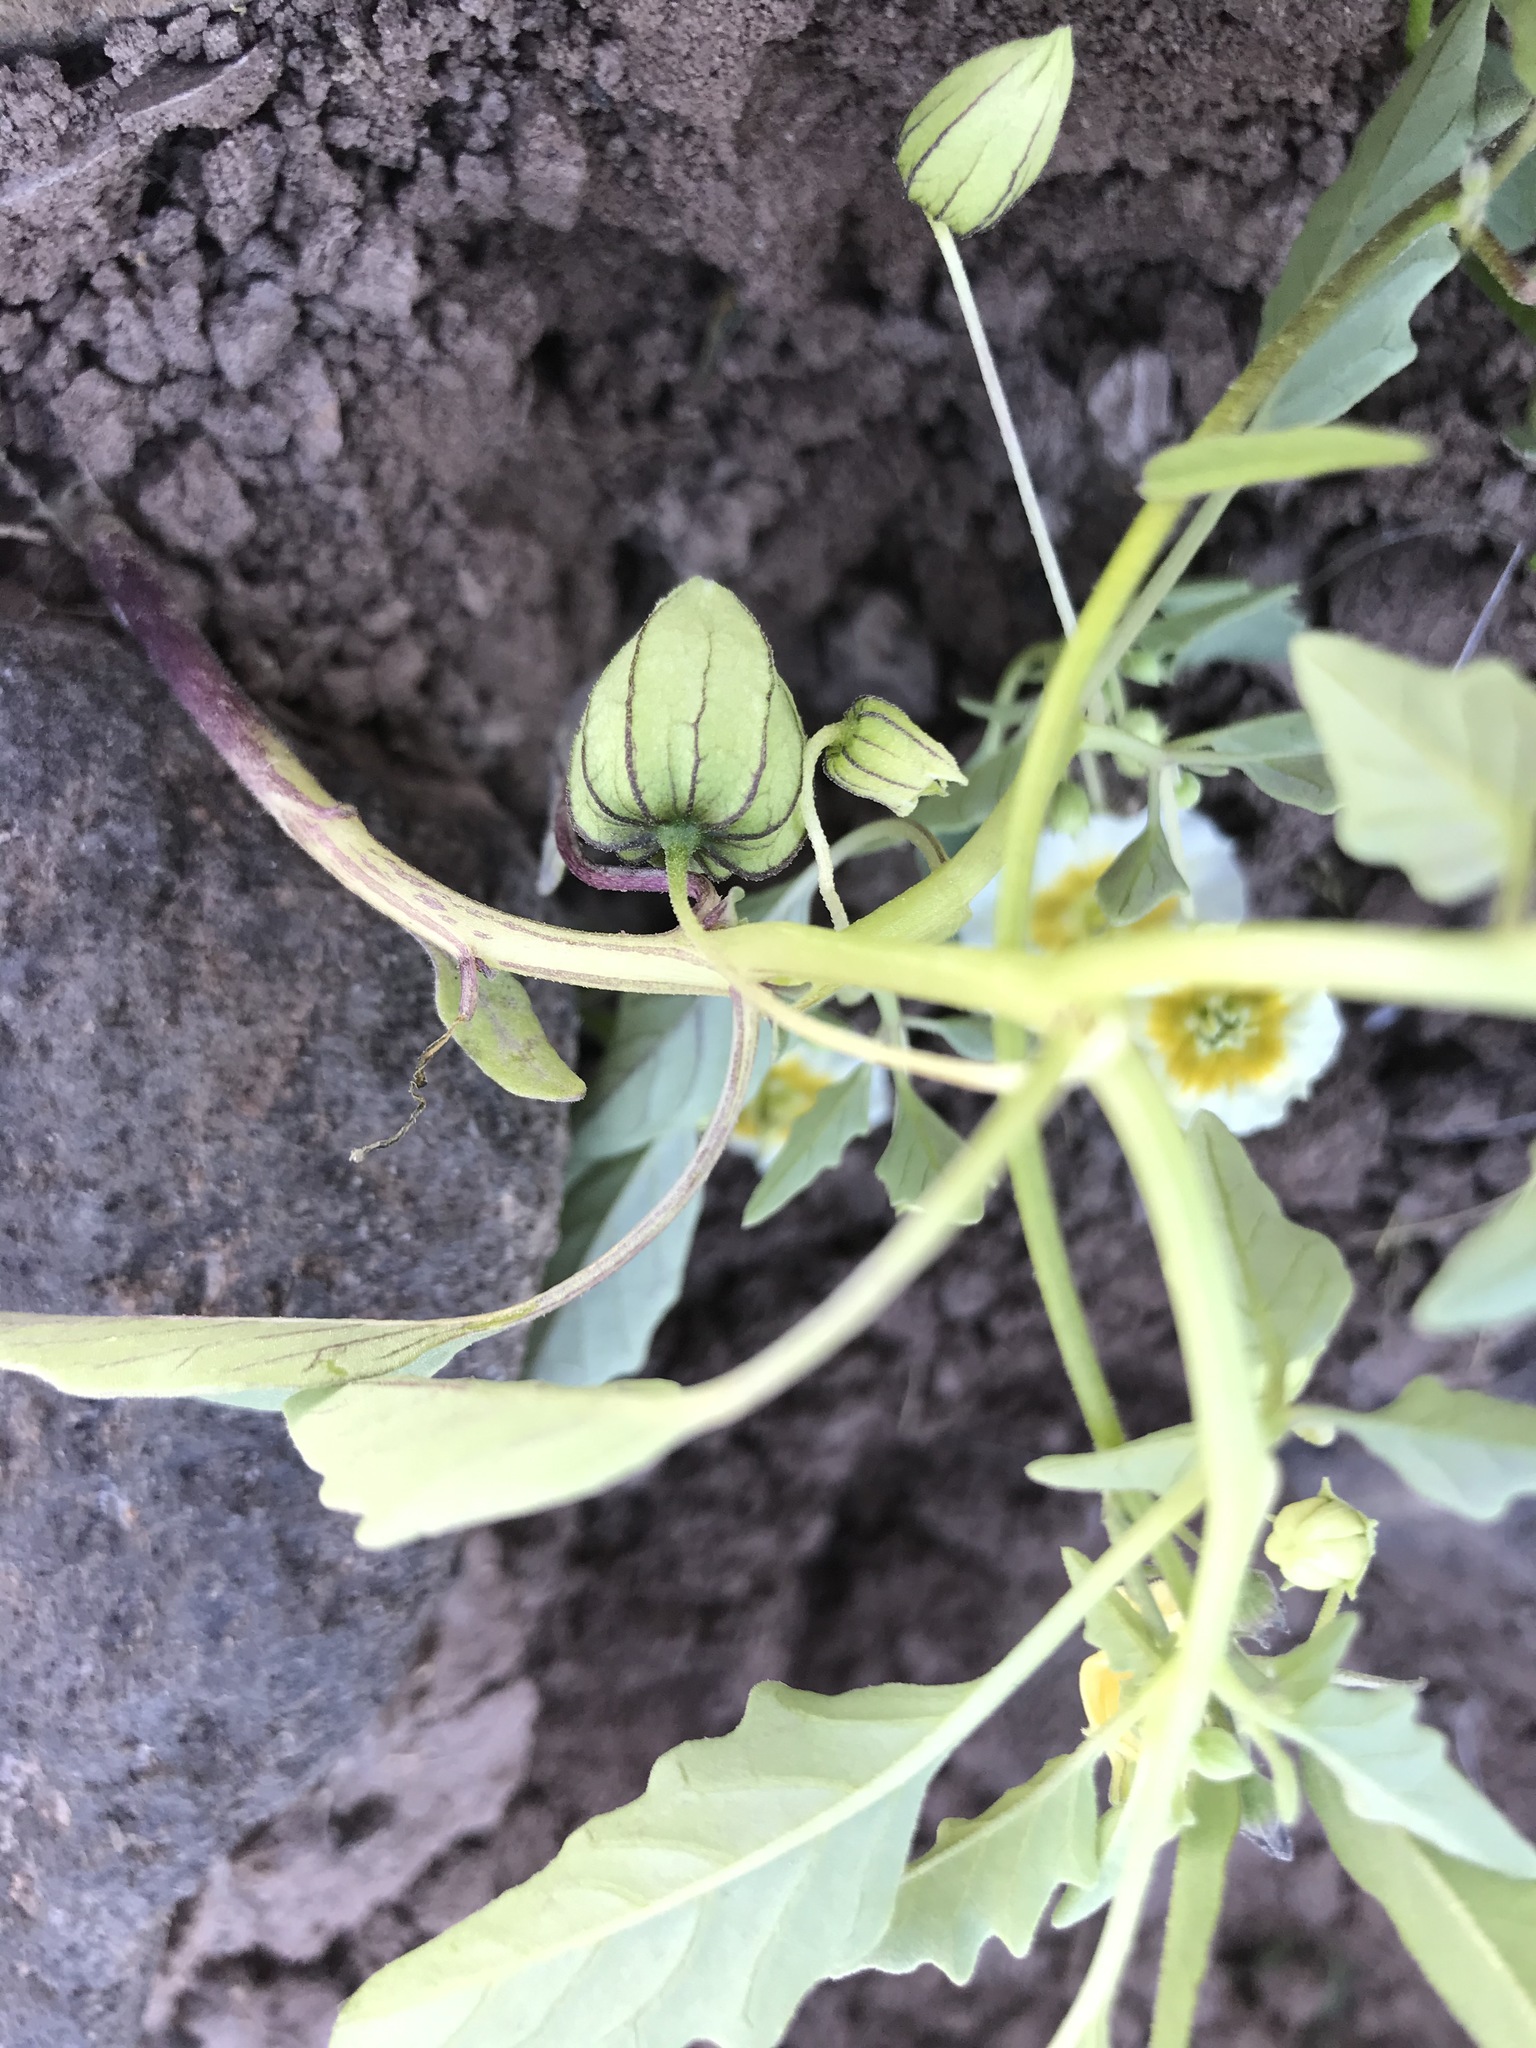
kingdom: Plantae
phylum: Tracheophyta
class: Magnoliopsida
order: Solanales
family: Solanaceae
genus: Physalis
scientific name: Physalis acutifolia
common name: Wright's ground-cherry
